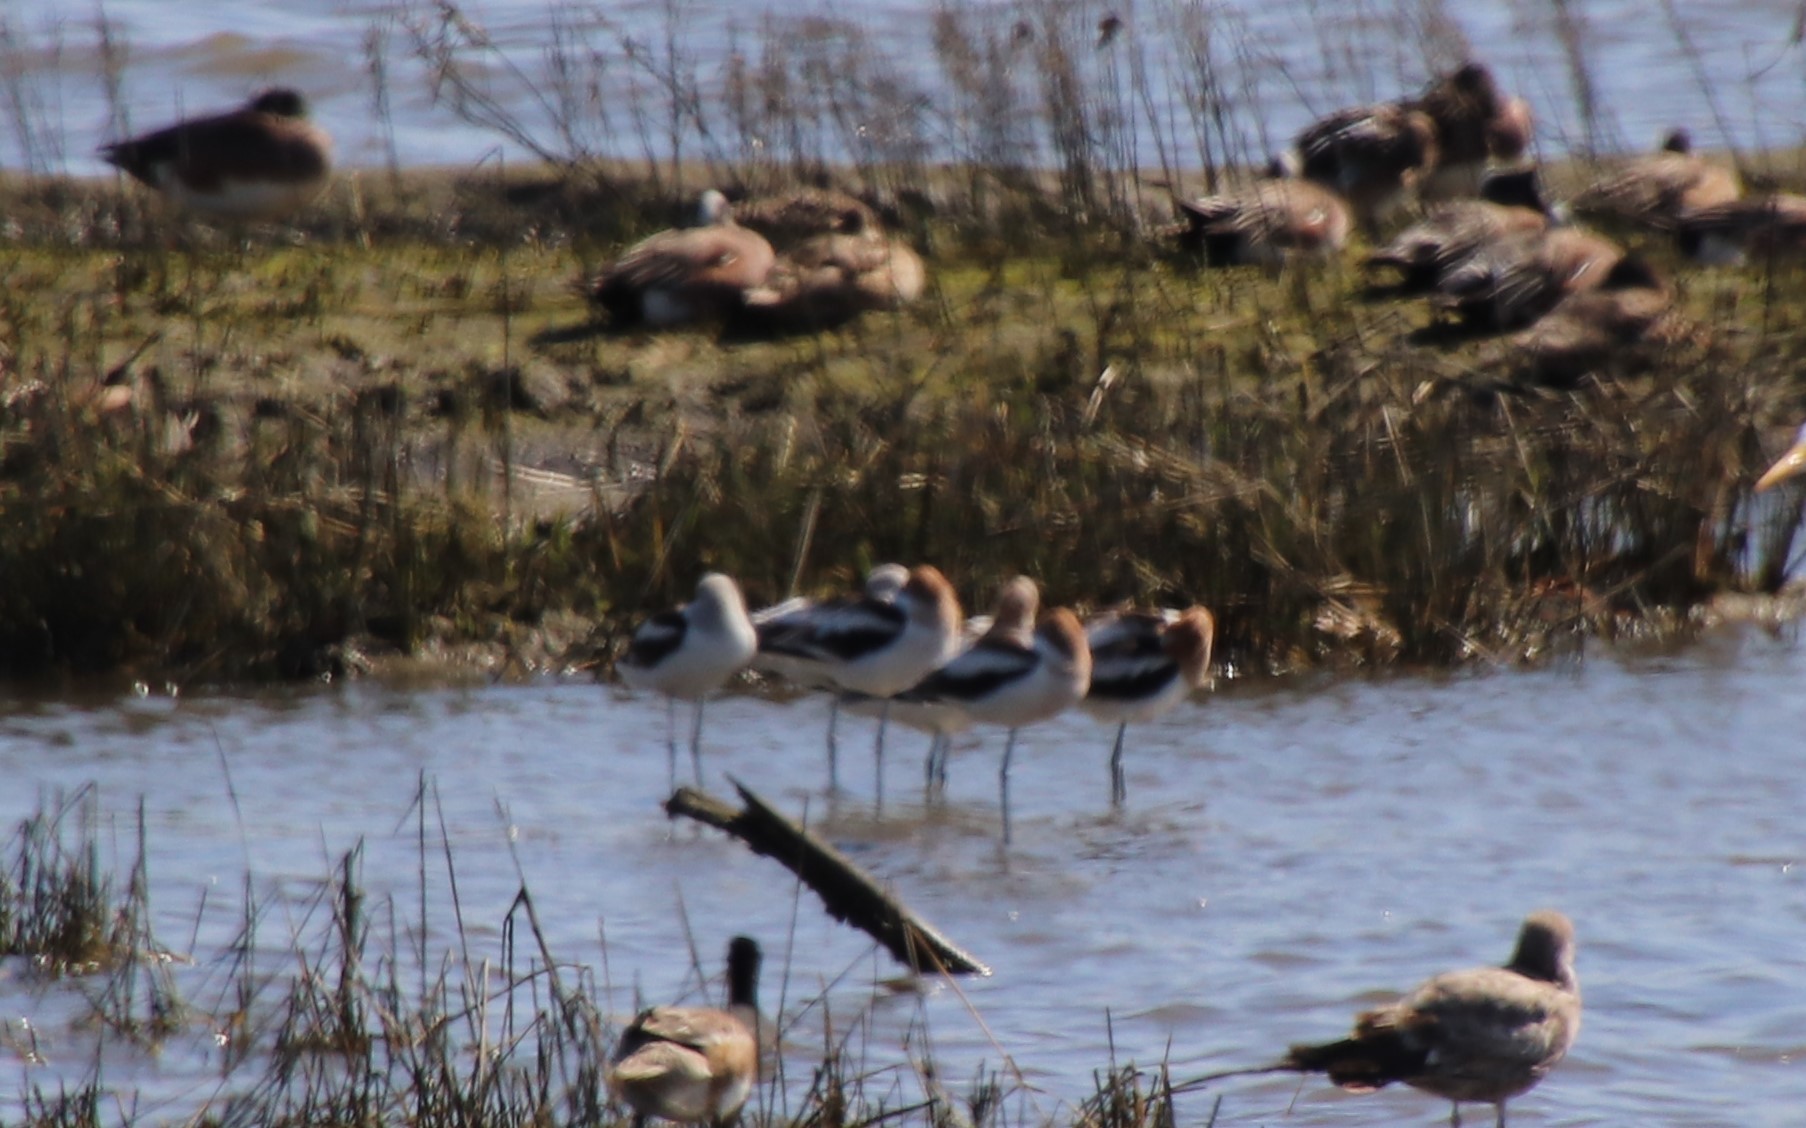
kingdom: Animalia
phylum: Chordata
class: Aves
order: Charadriiformes
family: Recurvirostridae
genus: Recurvirostra
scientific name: Recurvirostra americana
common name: American avocet
